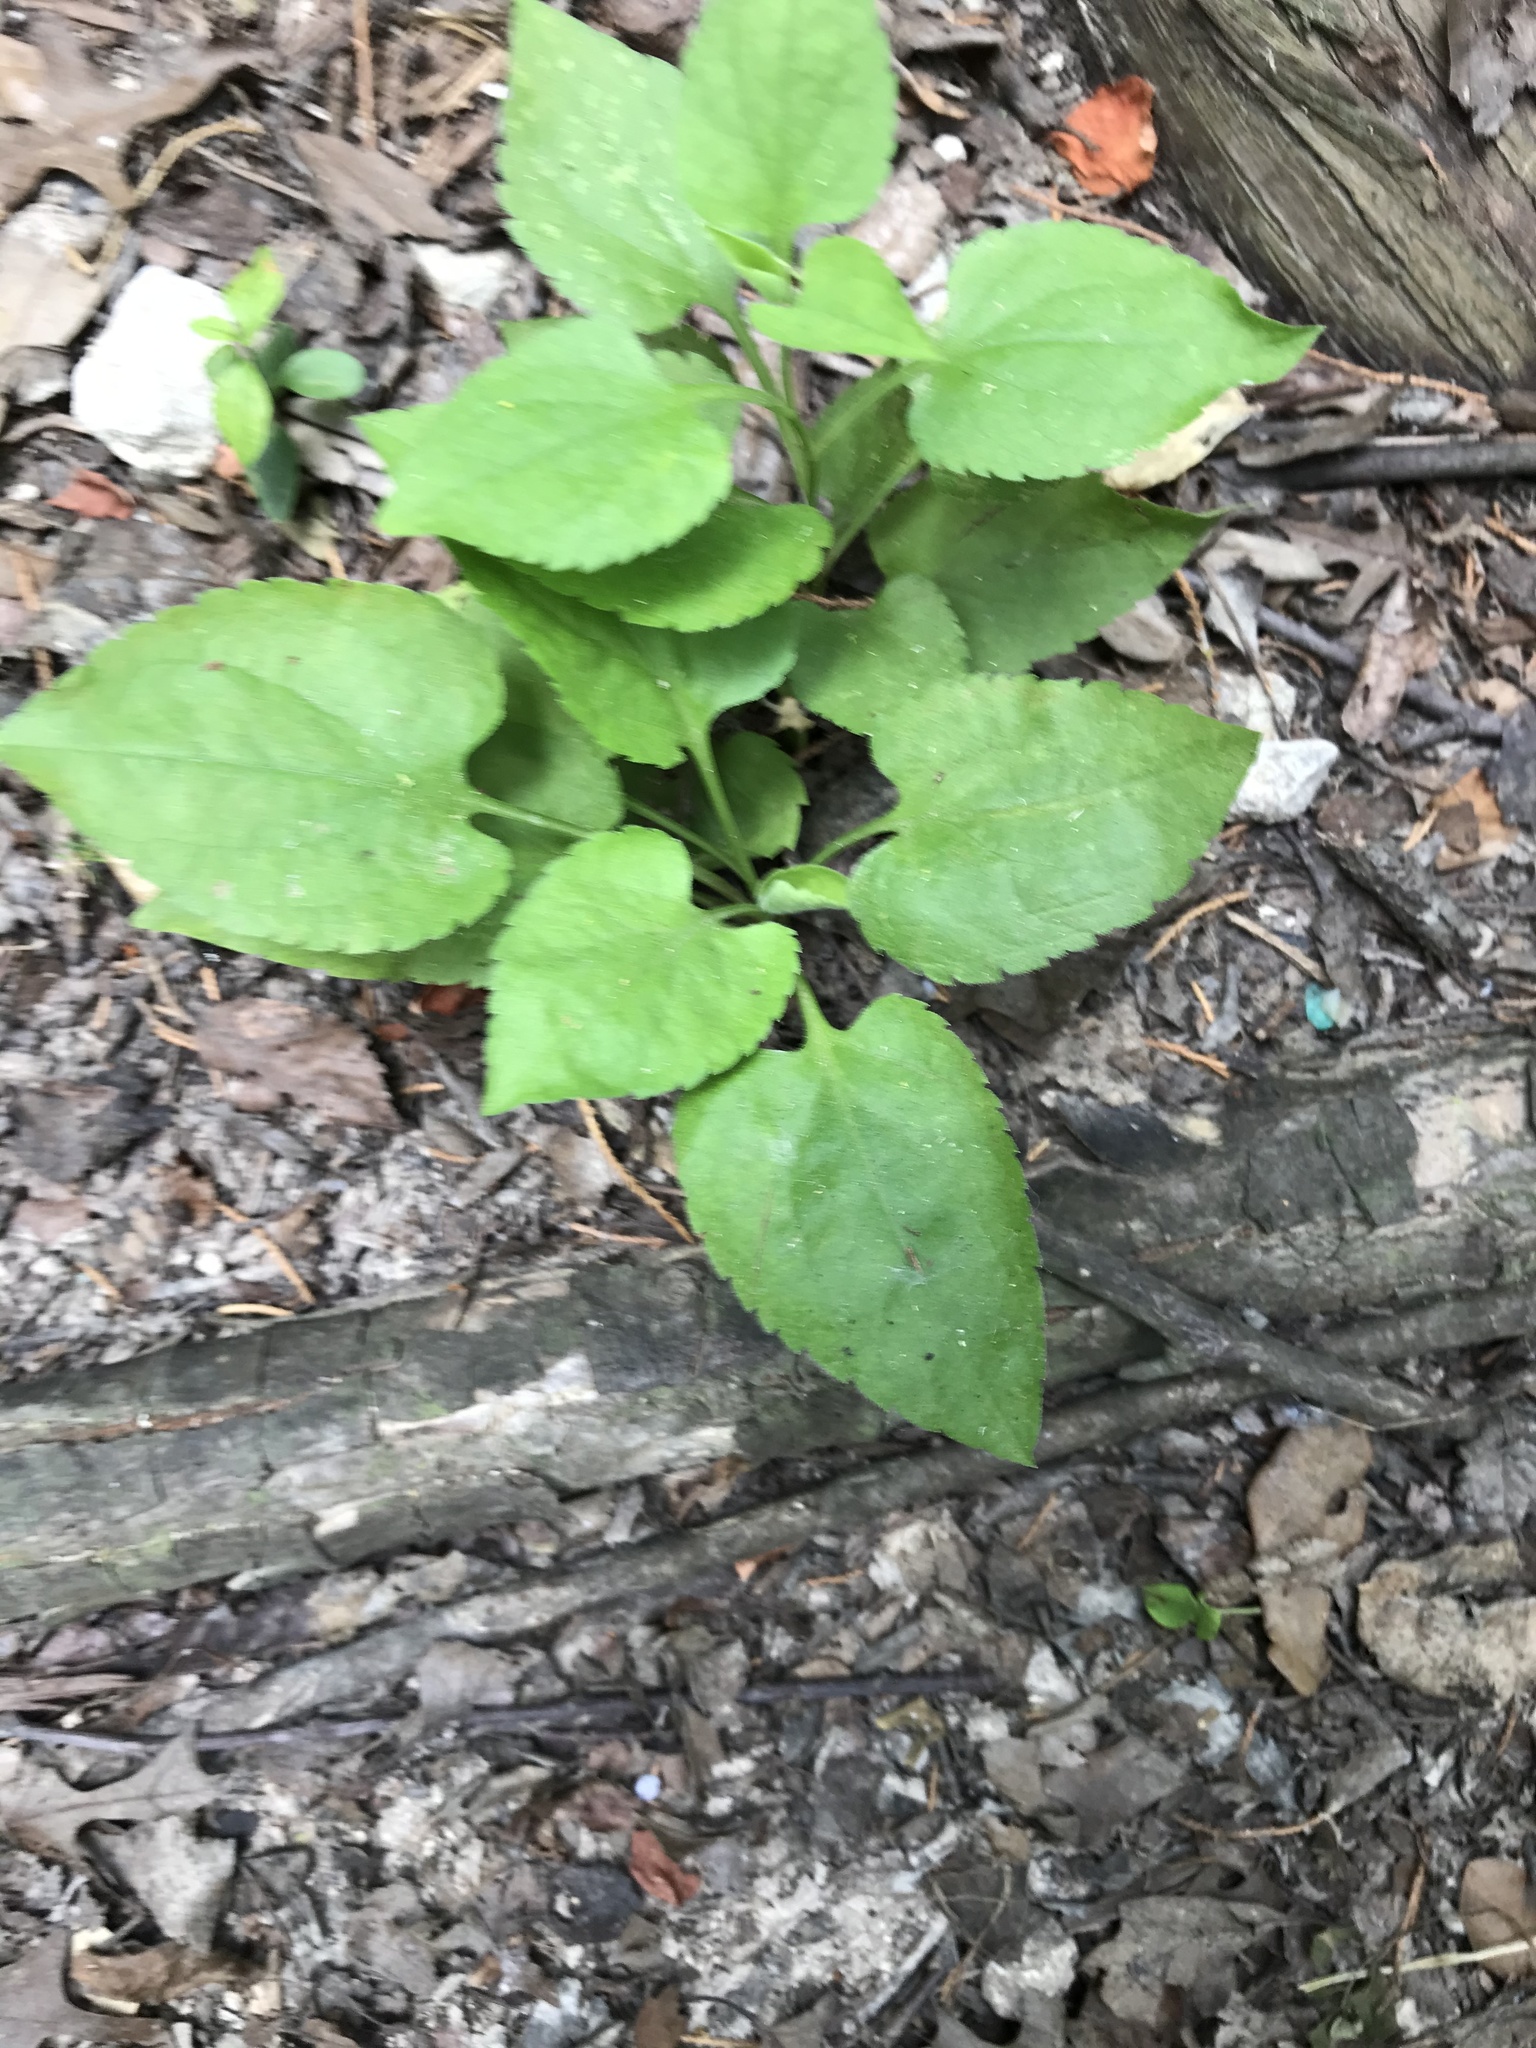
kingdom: Plantae
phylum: Tracheophyta
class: Magnoliopsida
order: Asterales
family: Asteraceae
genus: Symphyotrichum
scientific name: Symphyotrichum drummondii
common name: Drummond's aster
